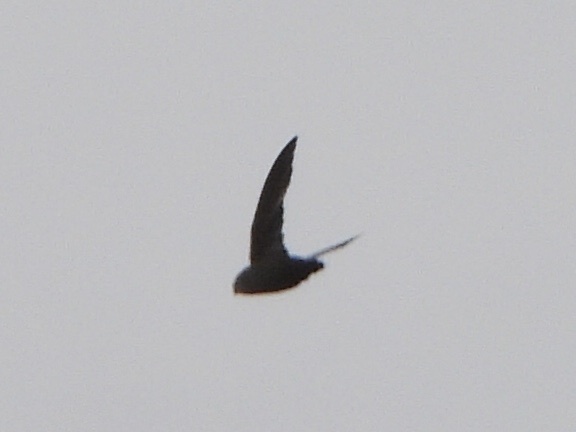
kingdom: Animalia
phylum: Chordata
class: Aves
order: Apodiformes
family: Apodidae
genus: Chaetura
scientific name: Chaetura vauxi
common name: Vaux's swift
